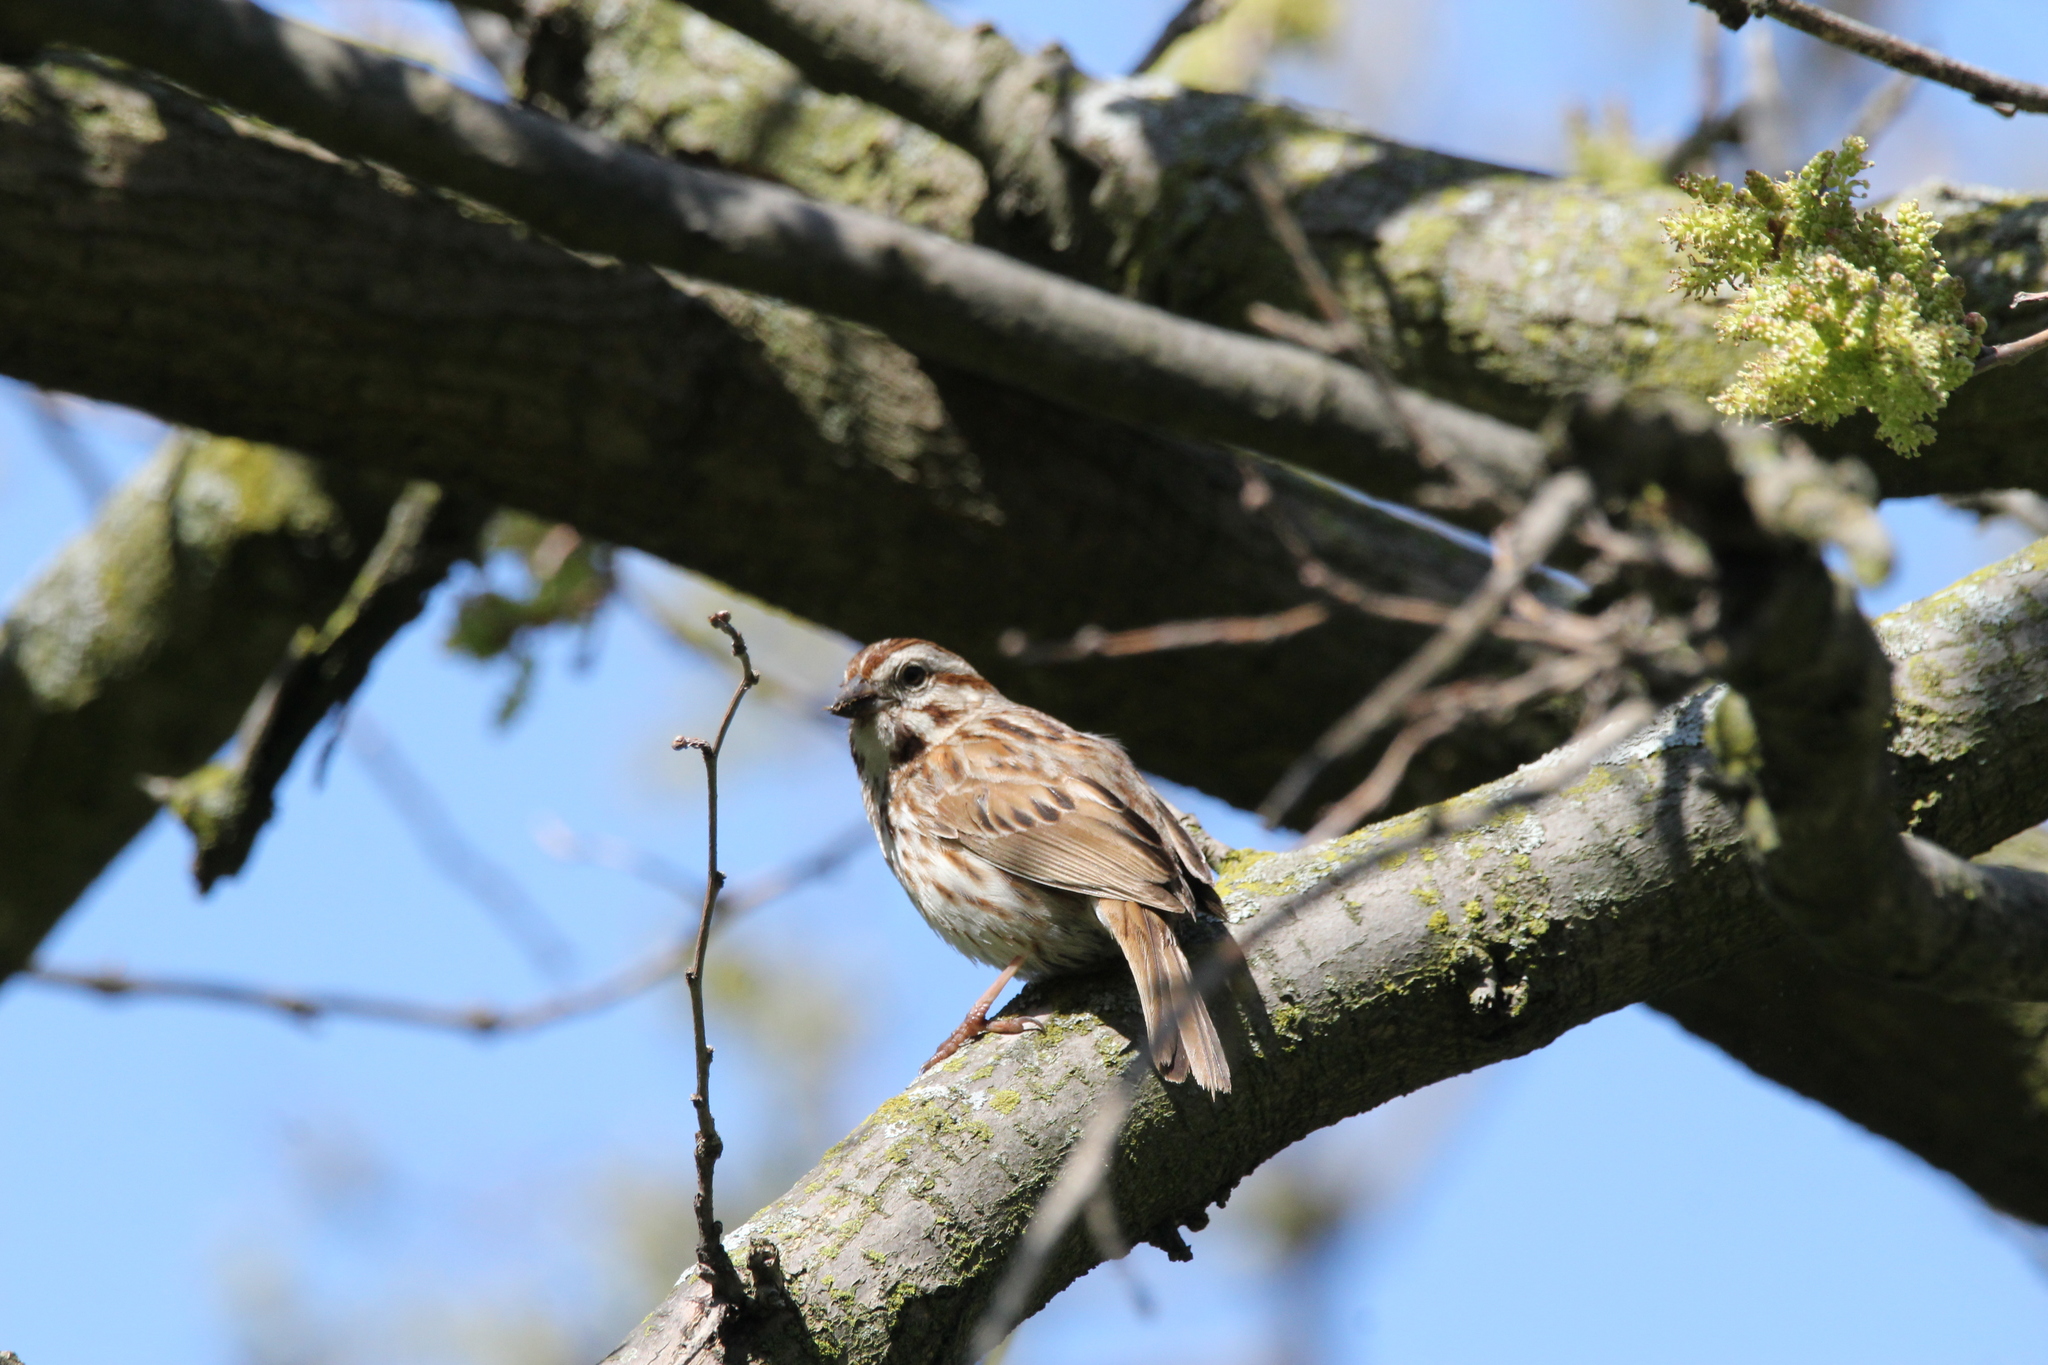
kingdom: Animalia
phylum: Chordata
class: Aves
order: Passeriformes
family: Passerellidae
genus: Melospiza
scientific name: Melospiza melodia
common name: Song sparrow
